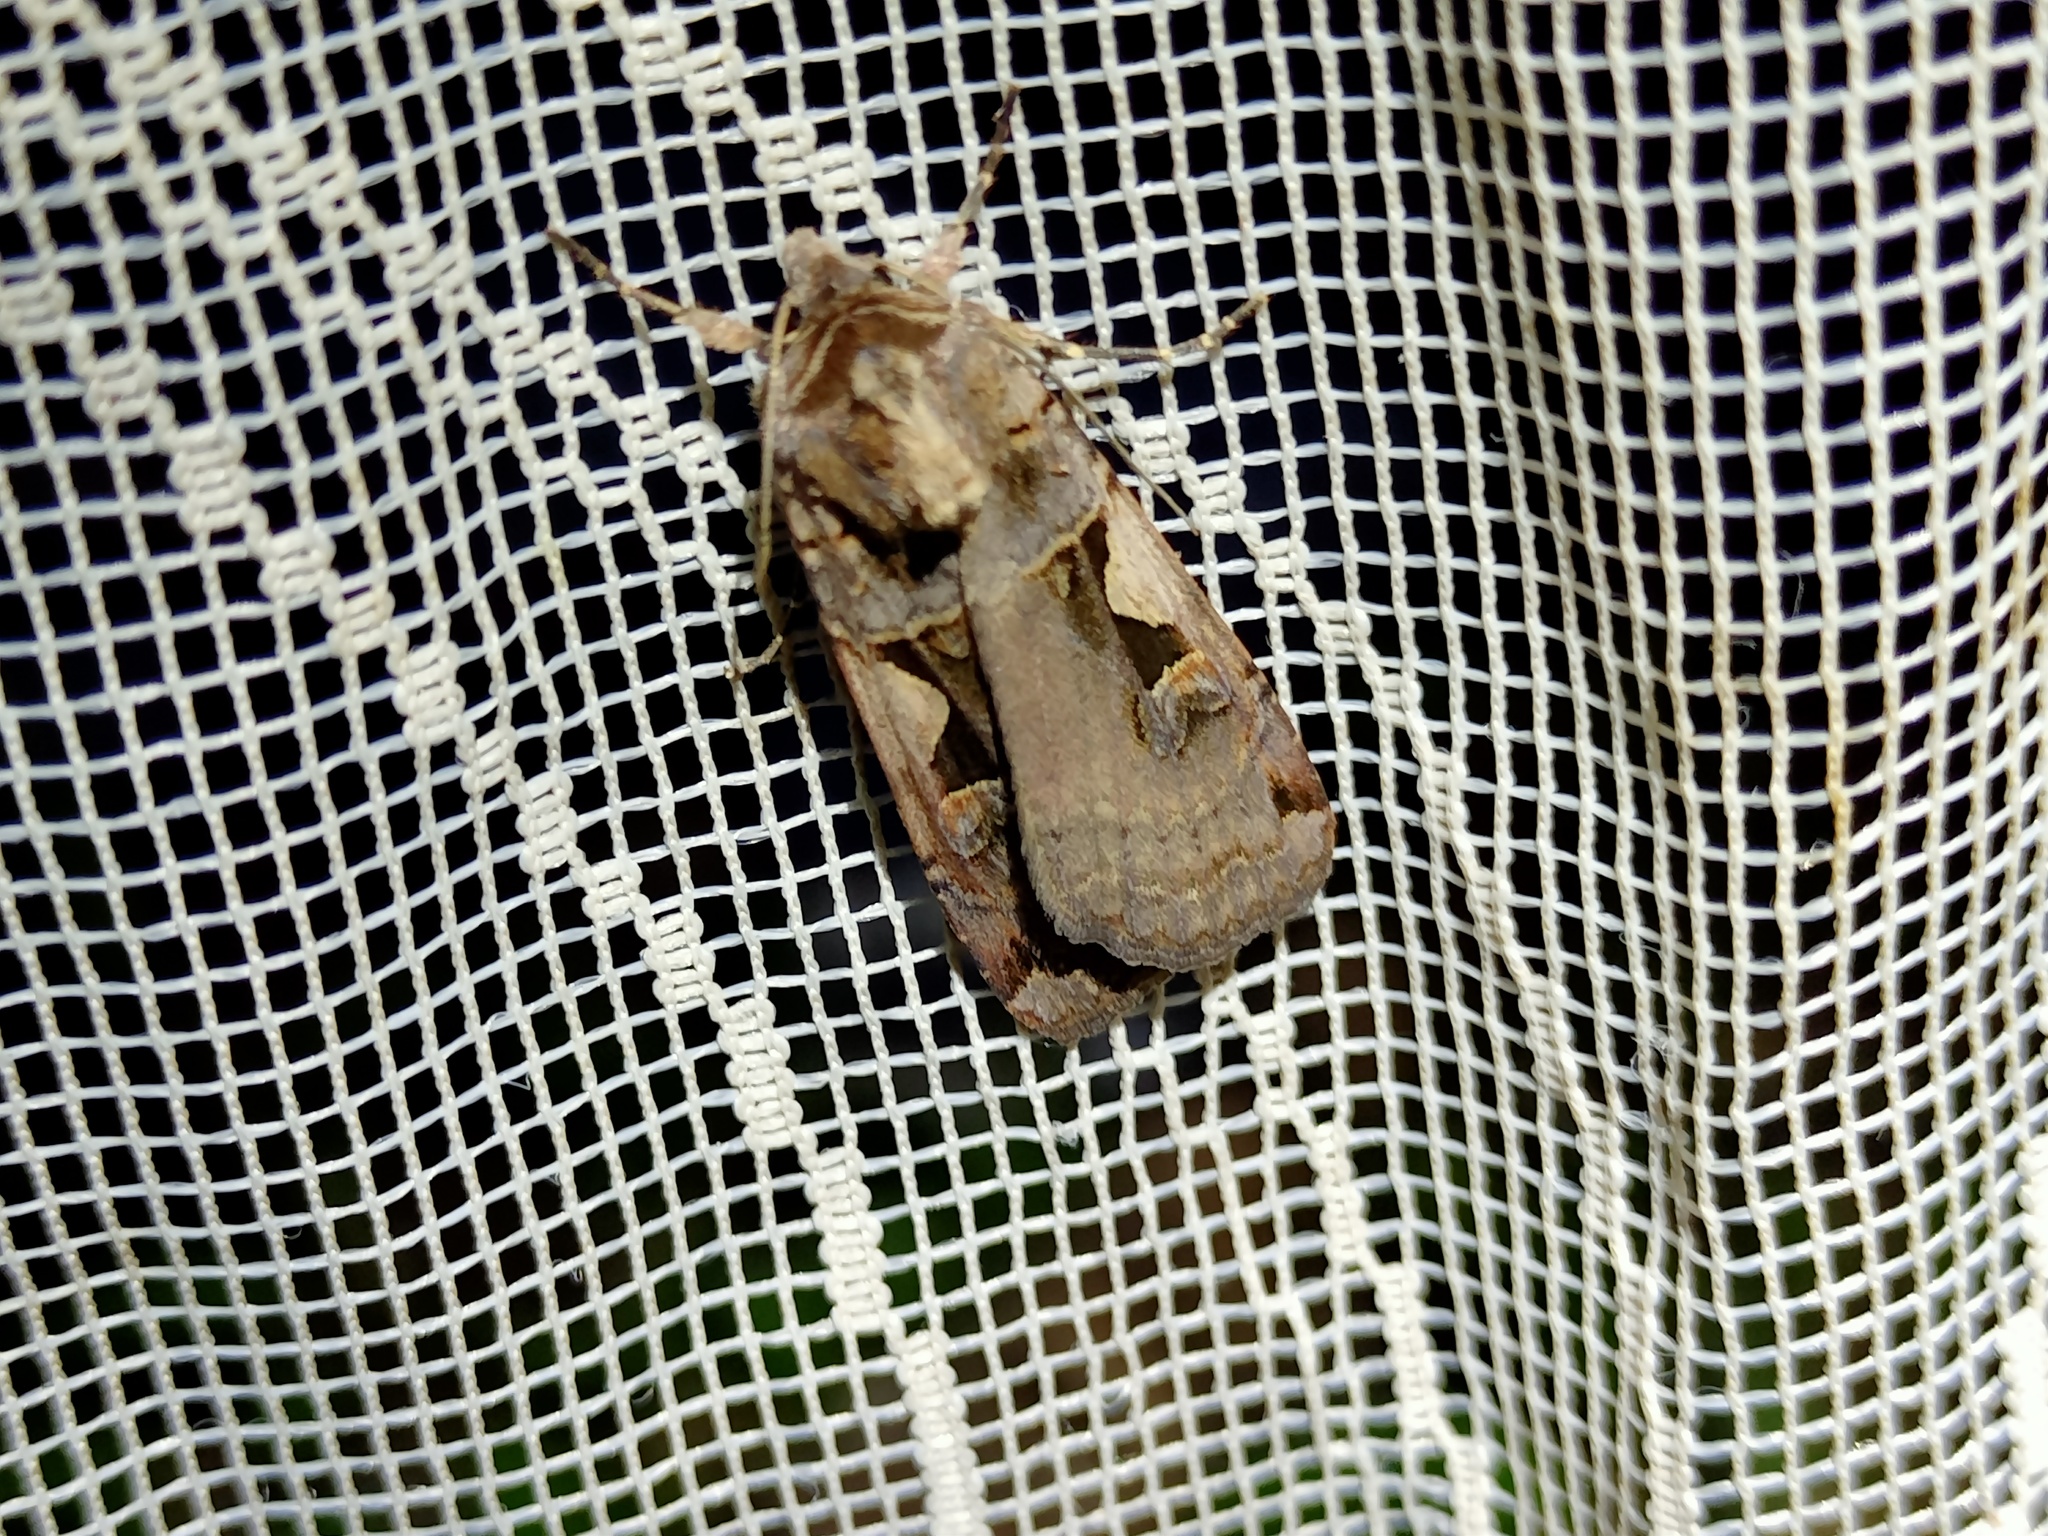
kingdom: Animalia
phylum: Arthropoda
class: Insecta
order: Lepidoptera
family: Noctuidae
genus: Xestia
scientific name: Xestia c-nigrum
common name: Setaceous hebrew character
